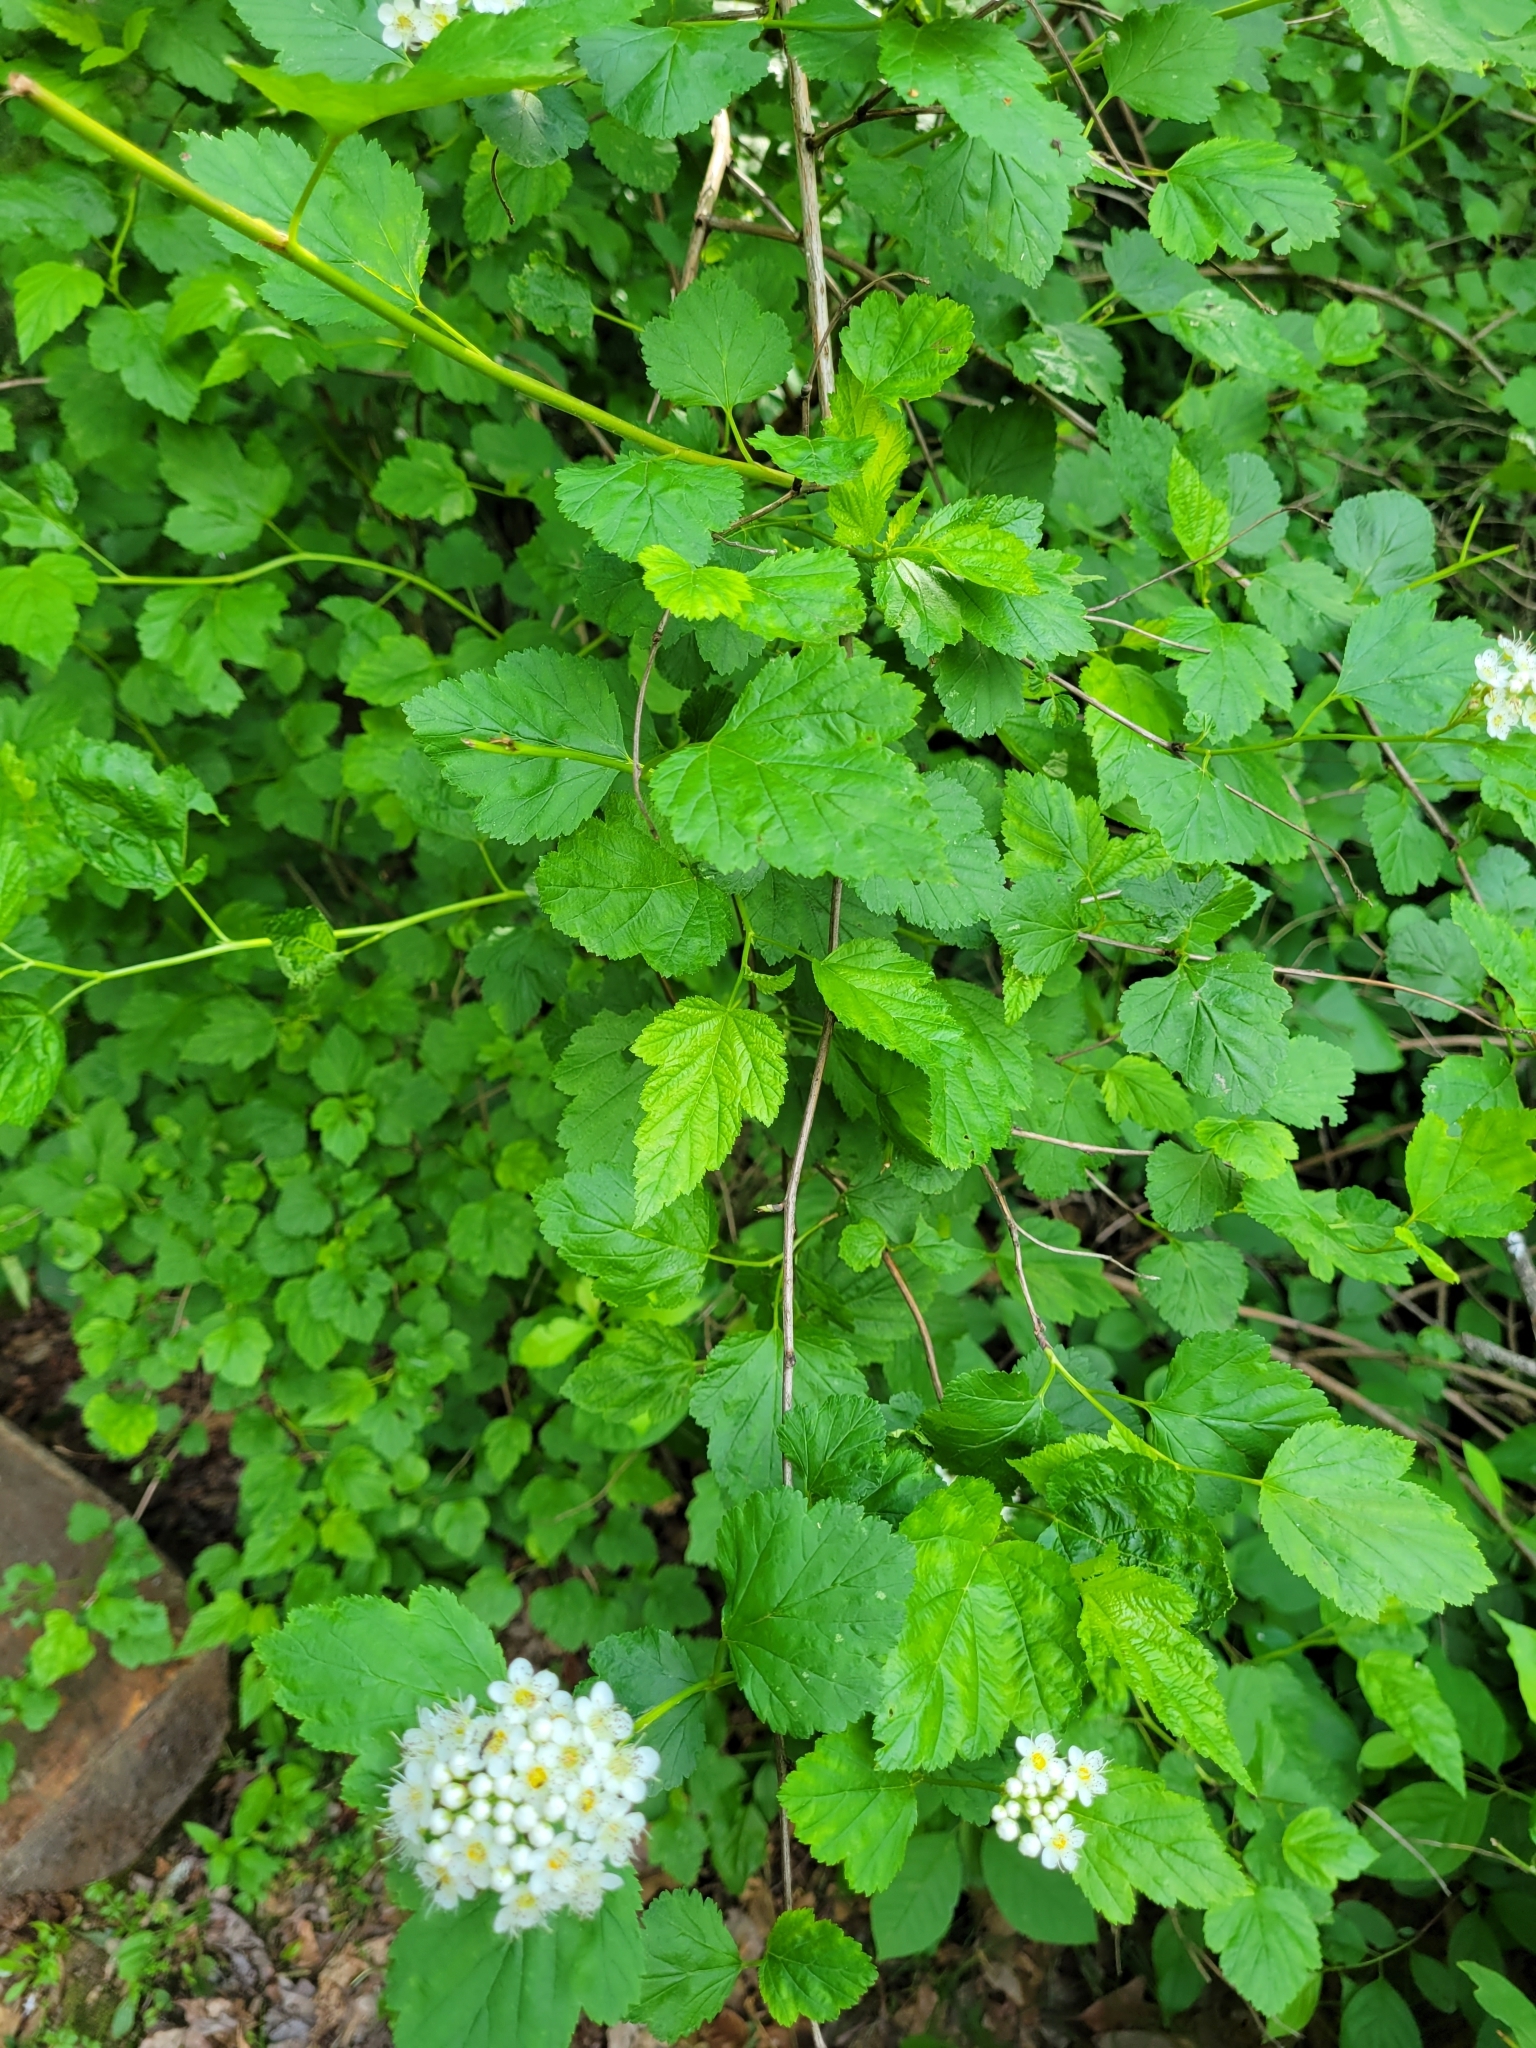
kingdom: Plantae
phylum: Tracheophyta
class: Magnoliopsida
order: Rosales
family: Rosaceae
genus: Physocarpus
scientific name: Physocarpus opulifolius
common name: Ninebark
